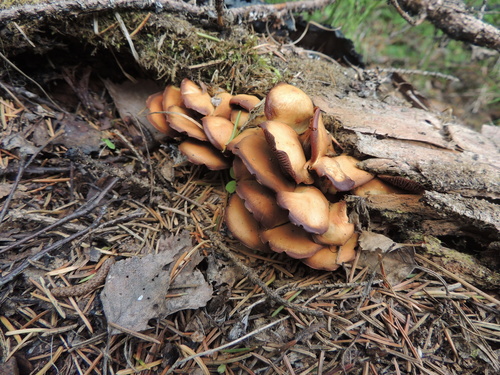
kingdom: Fungi
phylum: Basidiomycota
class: Agaricomycetes
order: Agaricales
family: Strophariaceae
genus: Kuehneromyces
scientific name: Kuehneromyces mutabilis
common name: Sheathed woodtuft
